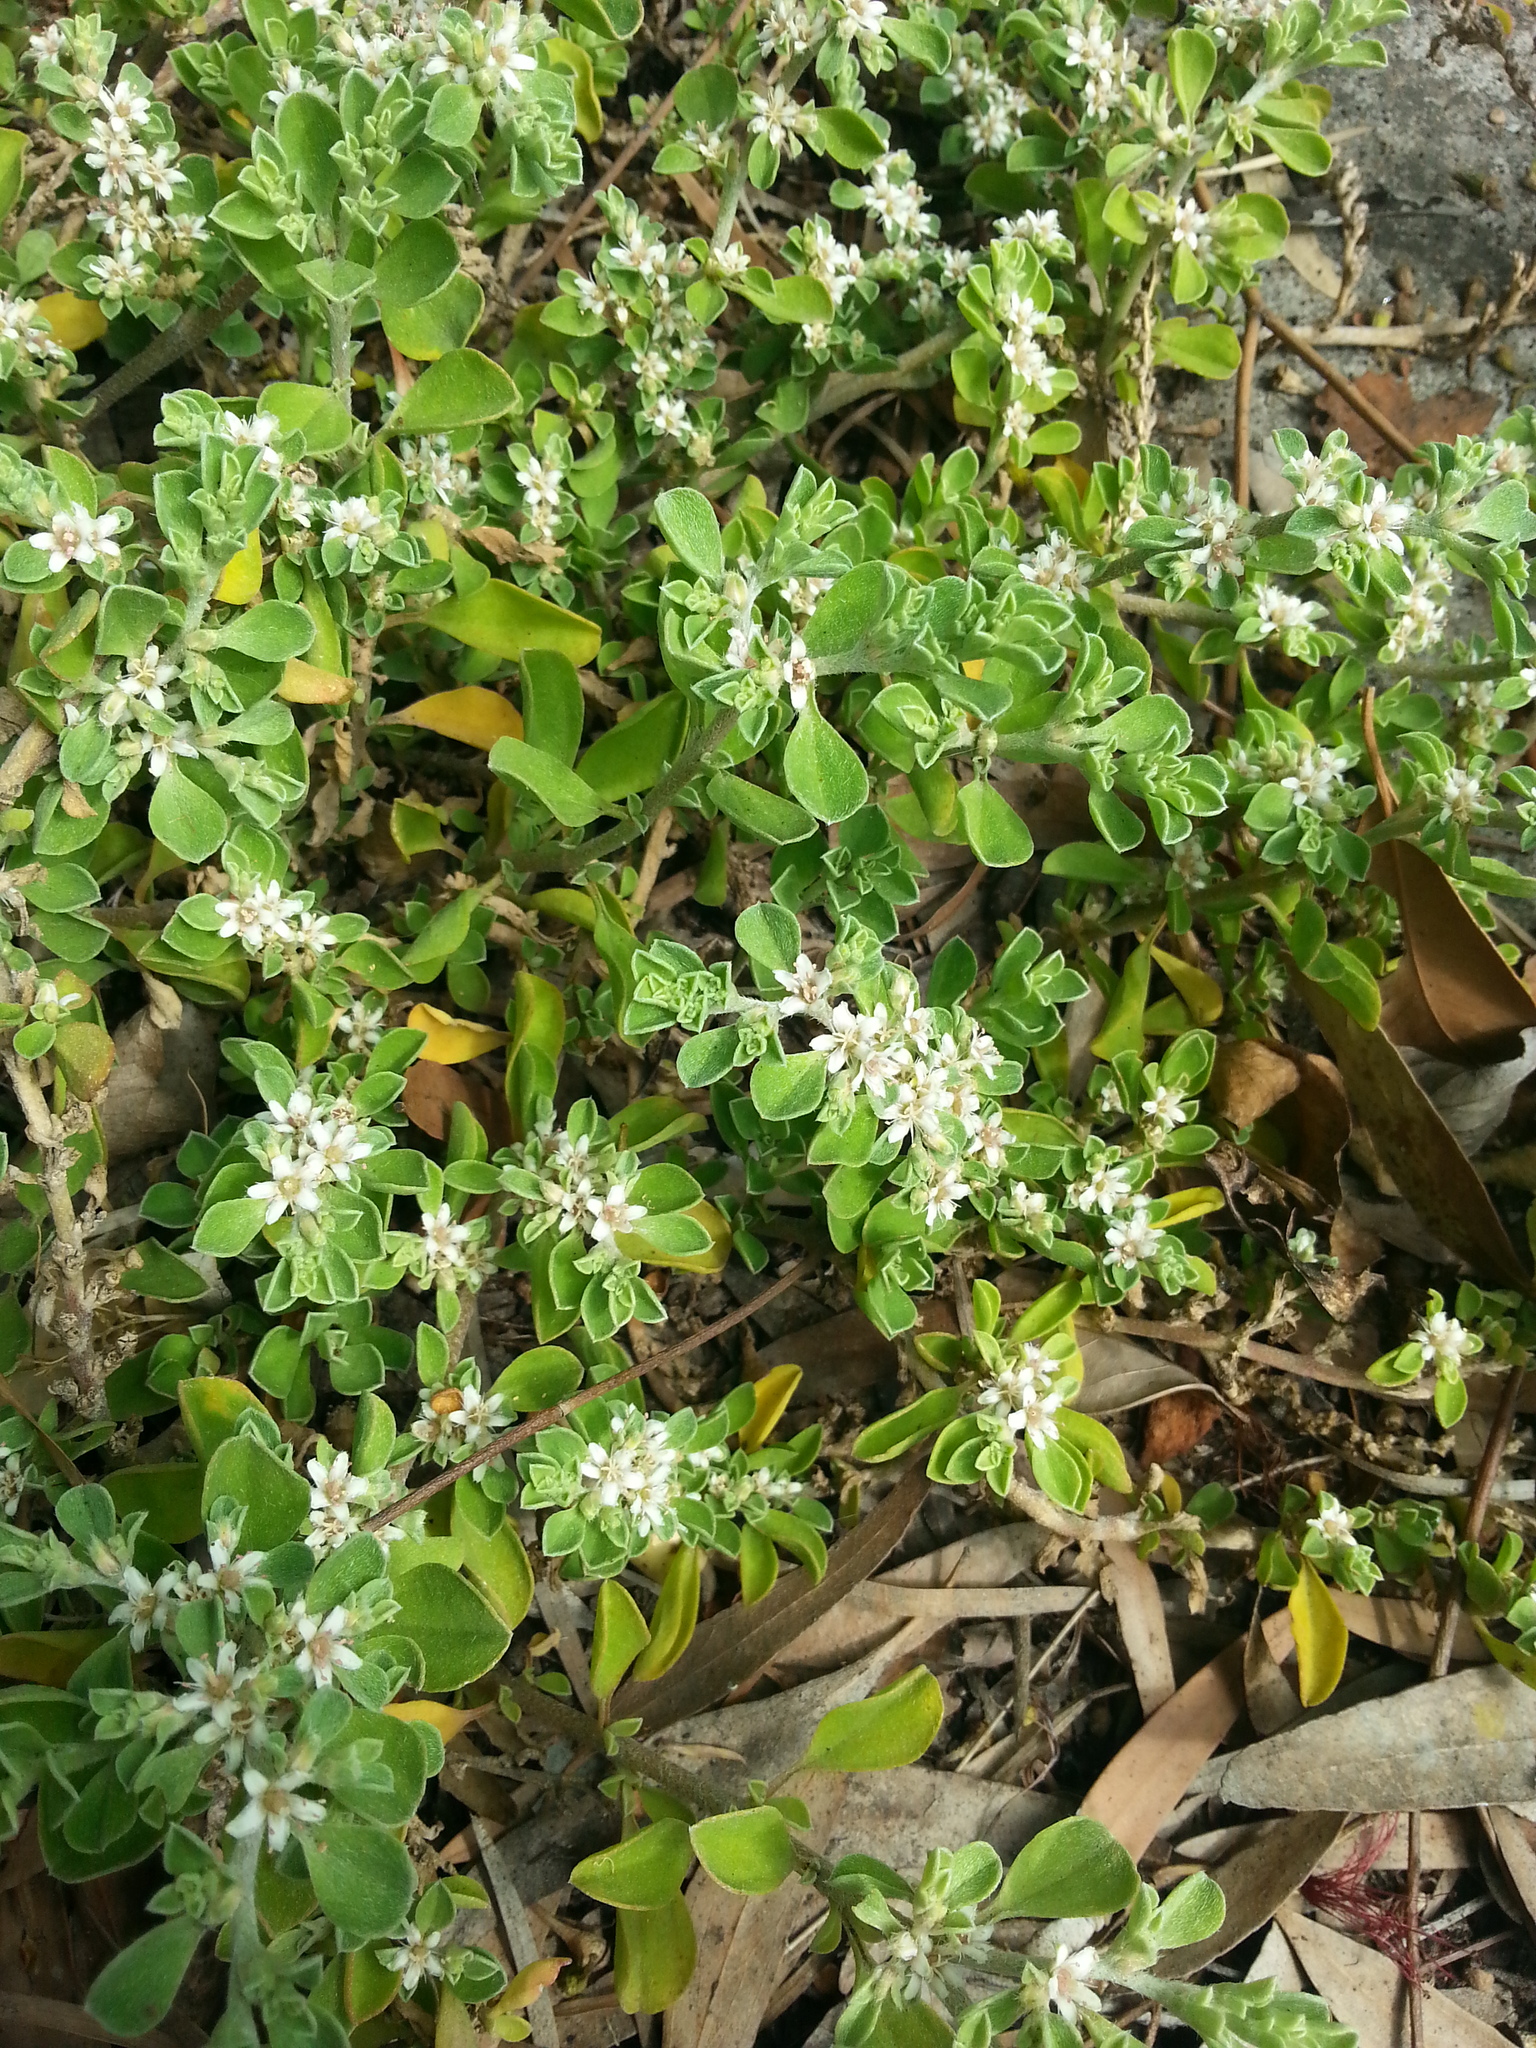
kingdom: Plantae
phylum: Tracheophyta
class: Magnoliopsida
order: Caryophyllales
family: Aizoaceae
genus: Aizoon
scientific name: Aizoon pubescens
